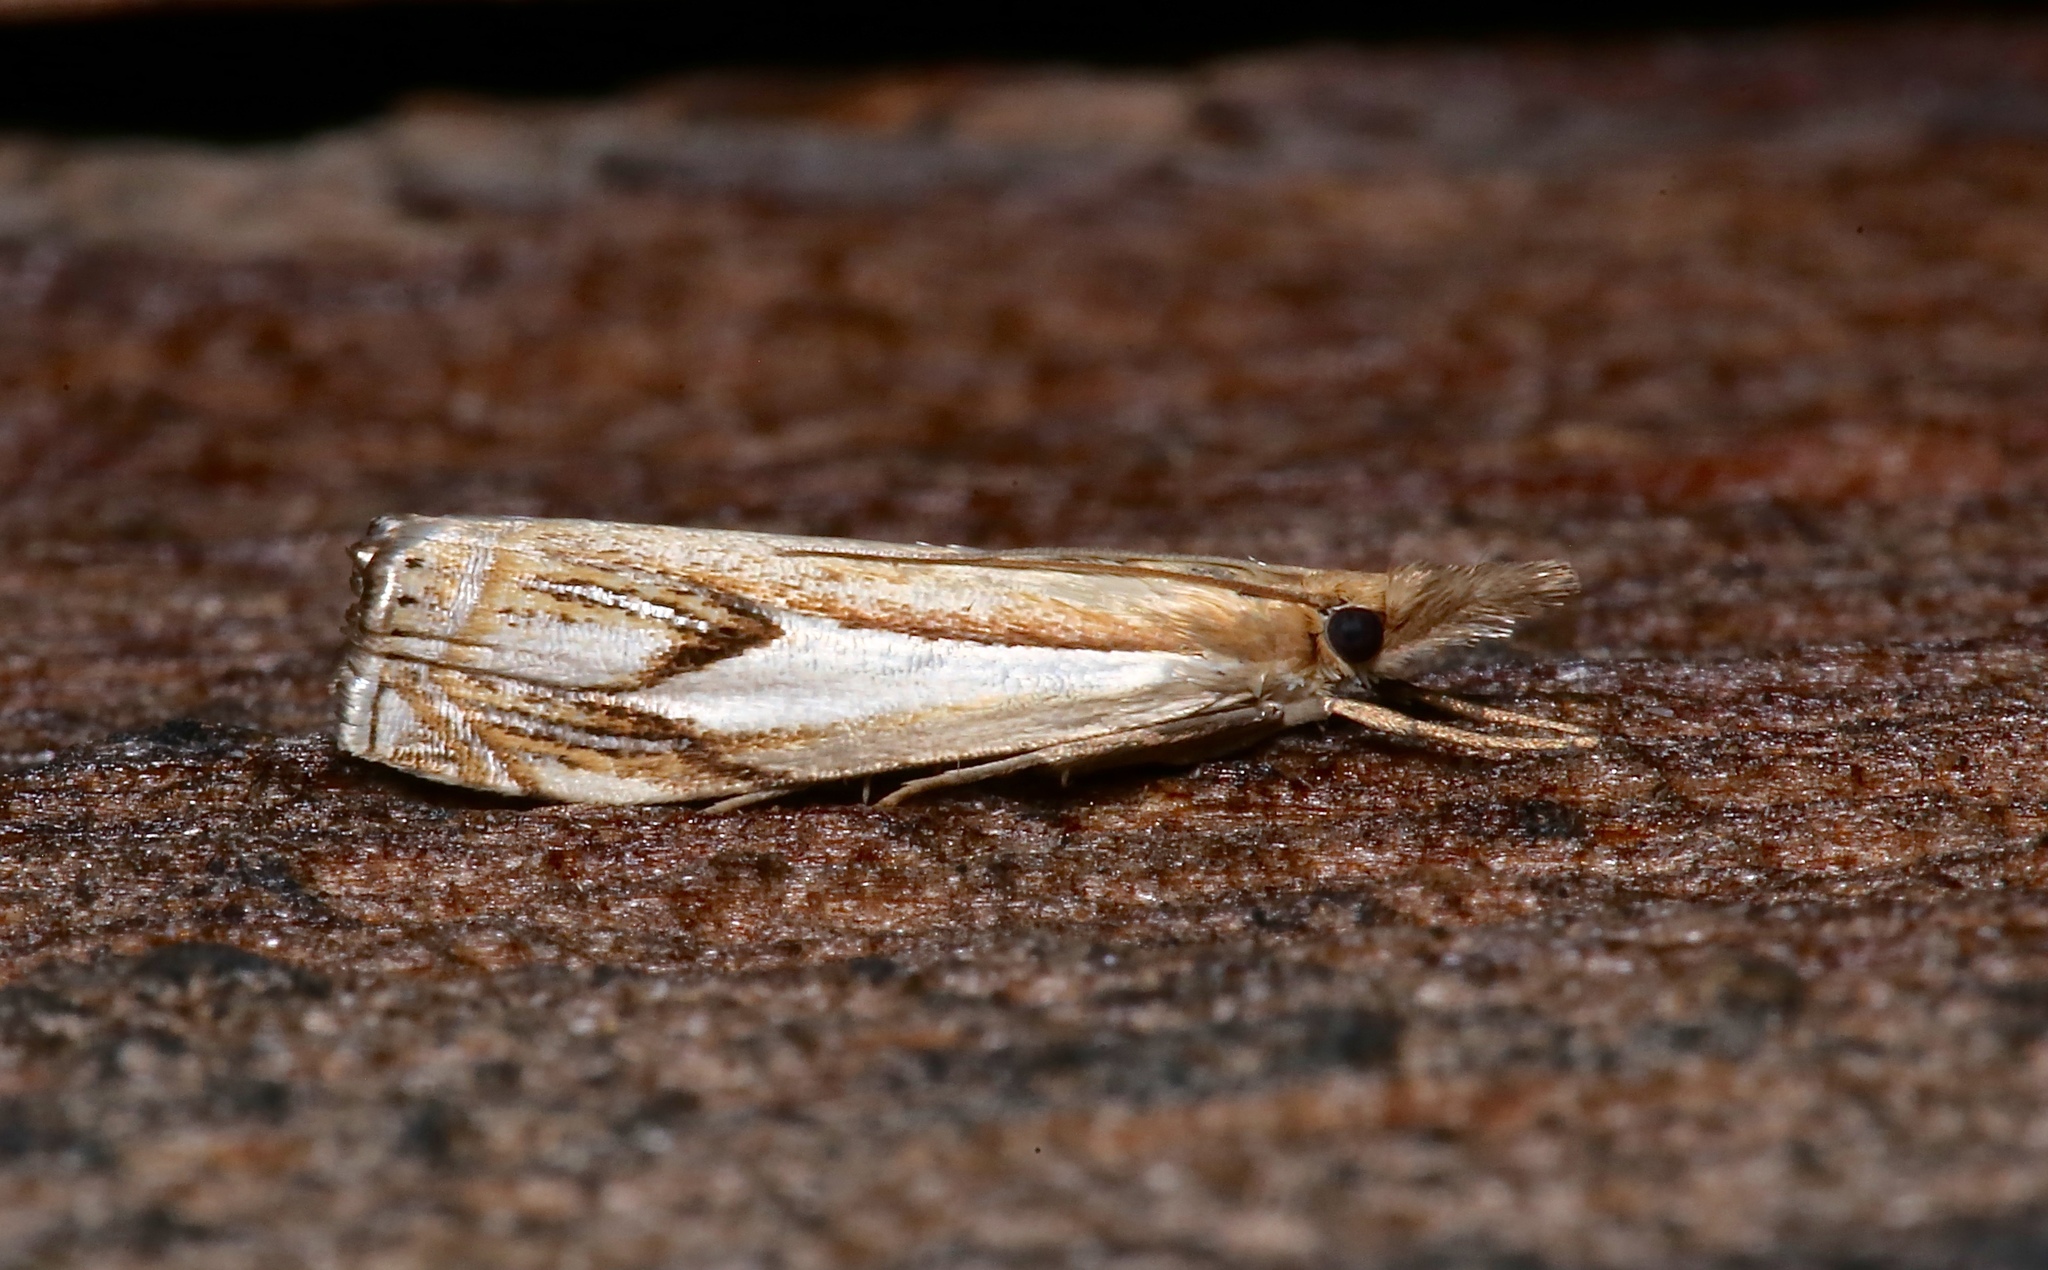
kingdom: Animalia
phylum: Arthropoda
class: Insecta
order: Lepidoptera
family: Crambidae
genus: Crambus
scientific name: Crambus agitatellus
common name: Double-banded grass-veneer
